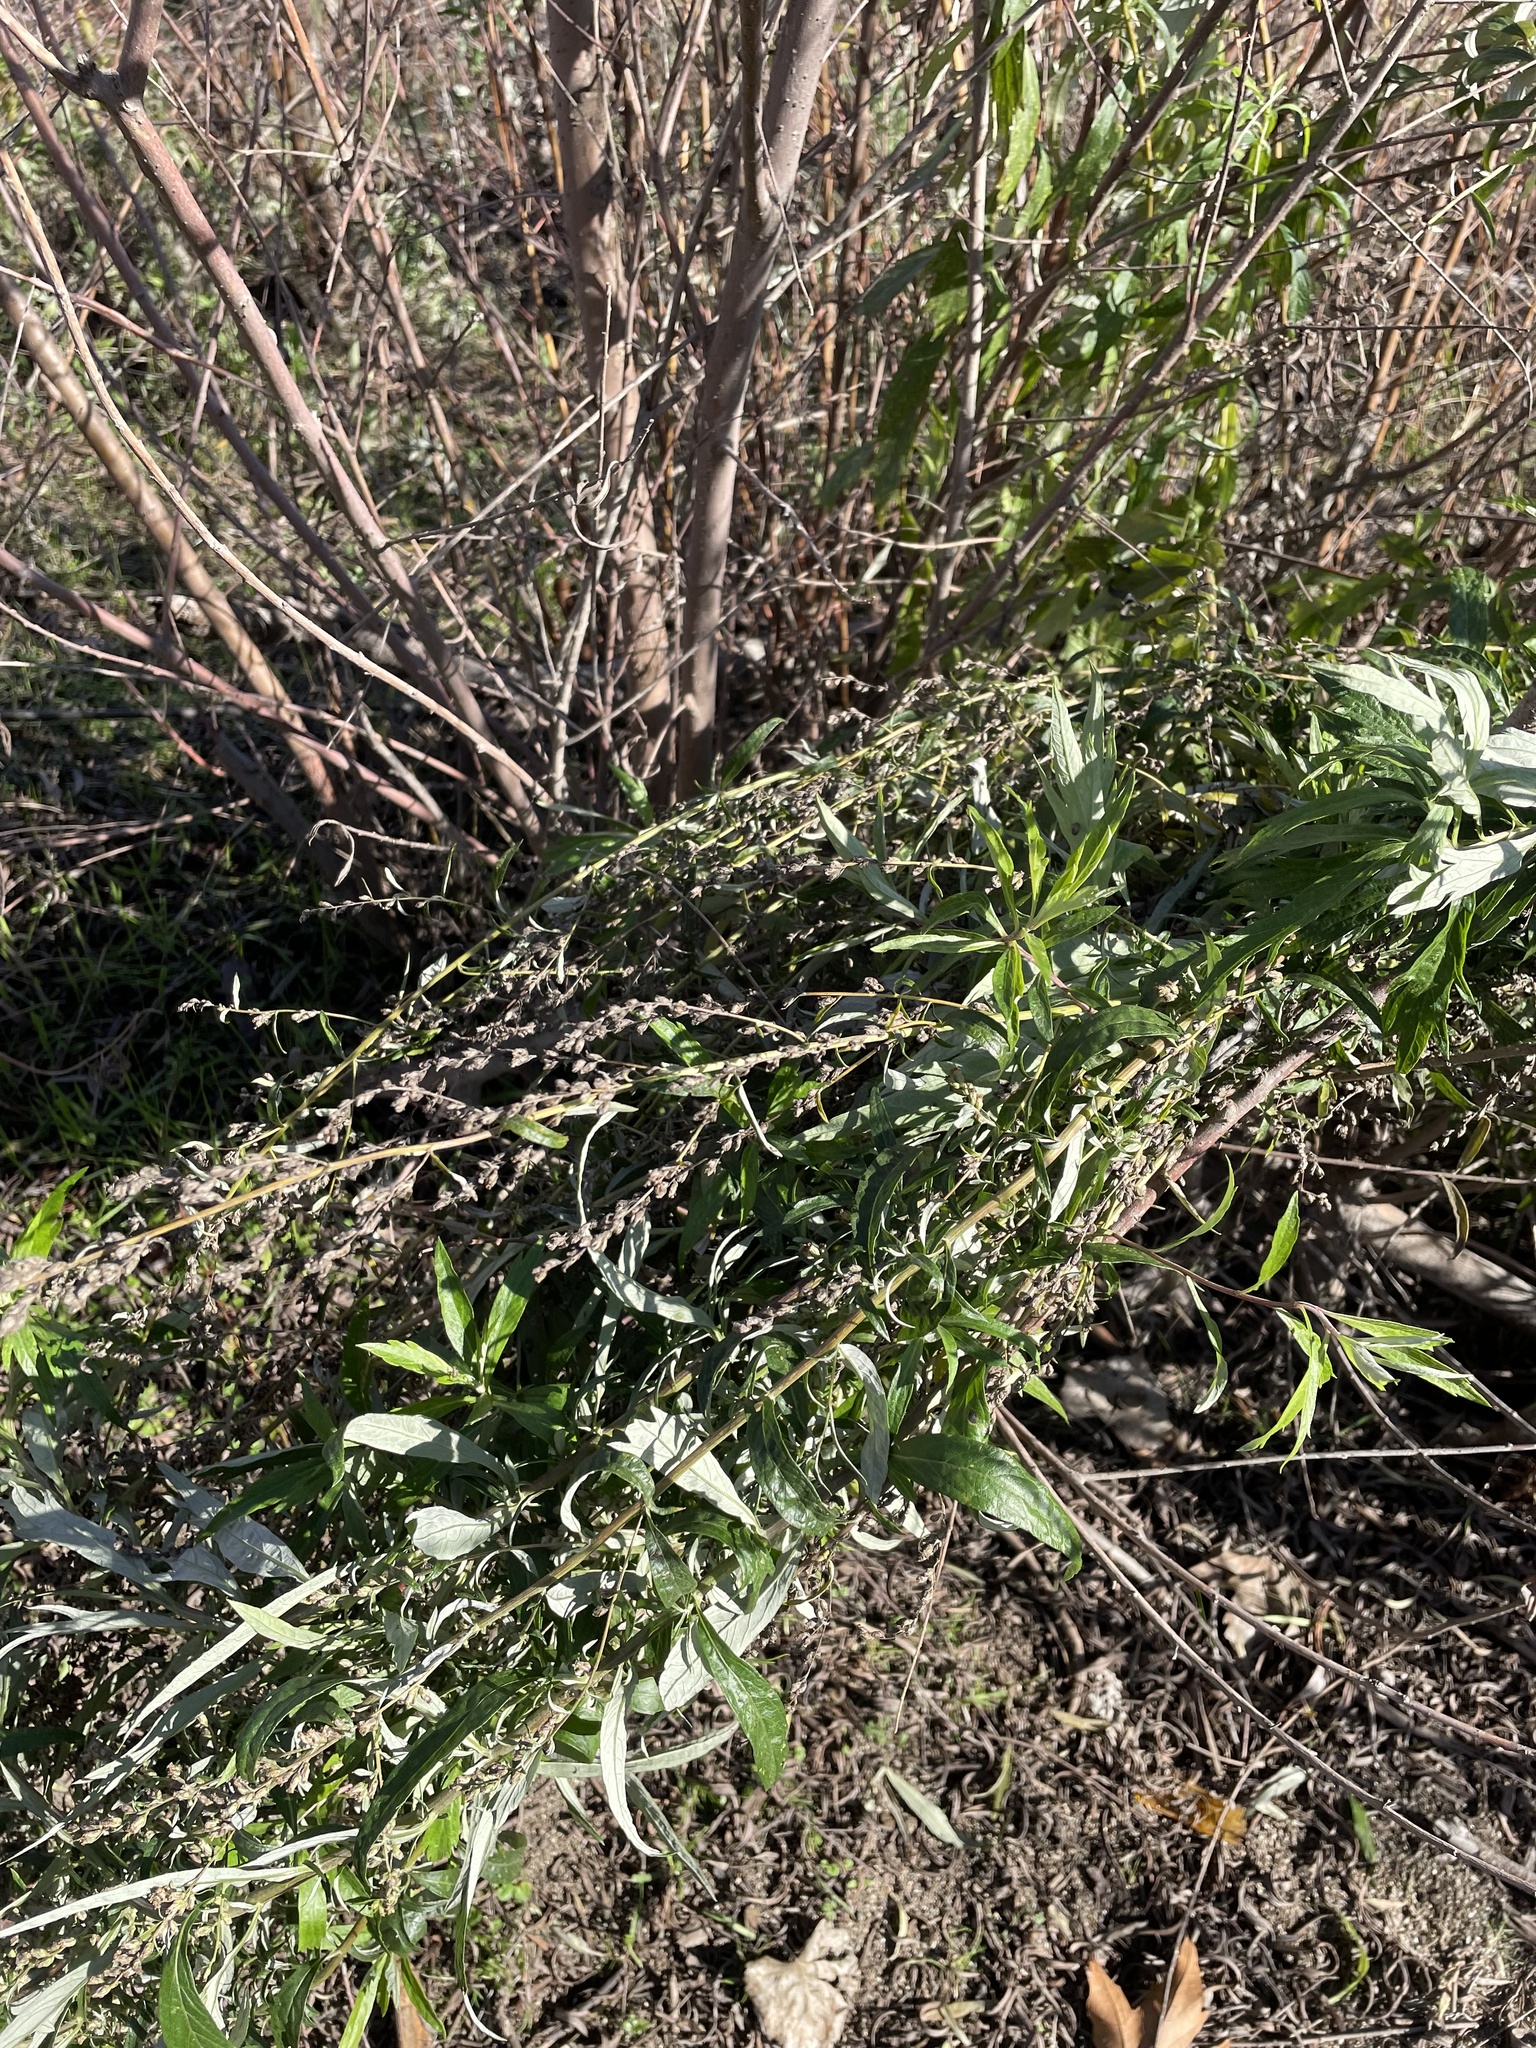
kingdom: Plantae
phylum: Tracheophyta
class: Magnoliopsida
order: Asterales
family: Asteraceae
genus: Artemisia
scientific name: Artemisia douglasiana
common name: Northwest mugwort
